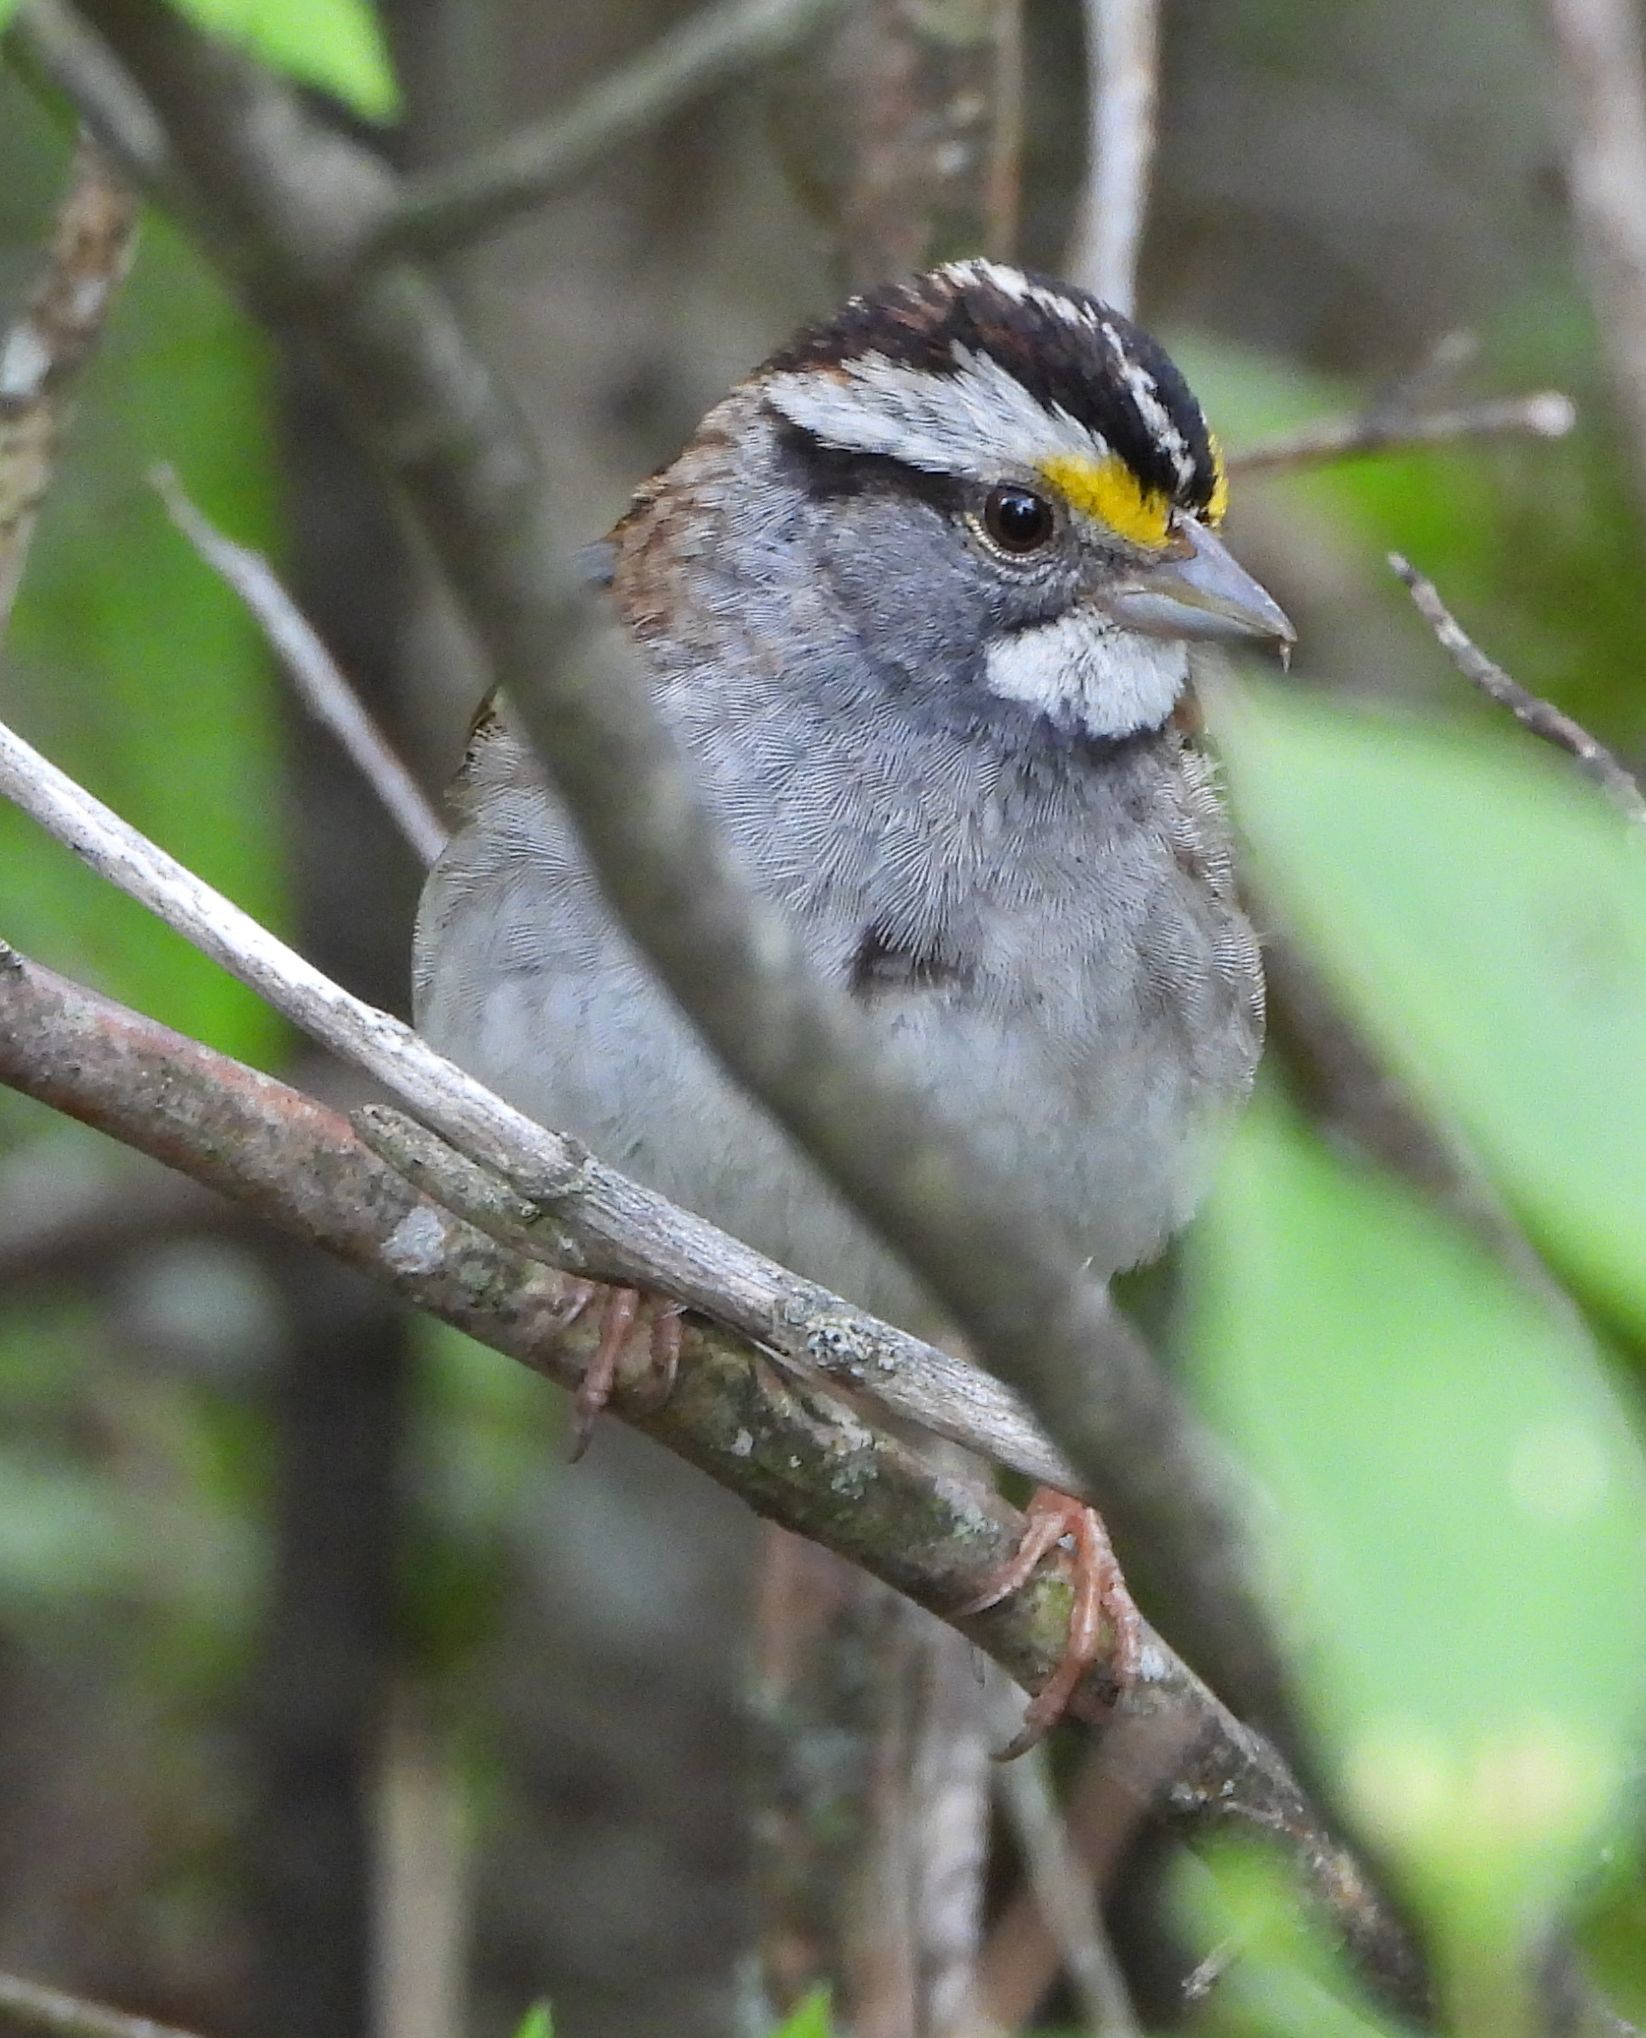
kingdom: Animalia
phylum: Chordata
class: Aves
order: Passeriformes
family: Passerellidae
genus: Zonotrichia
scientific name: Zonotrichia albicollis
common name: White-throated sparrow
